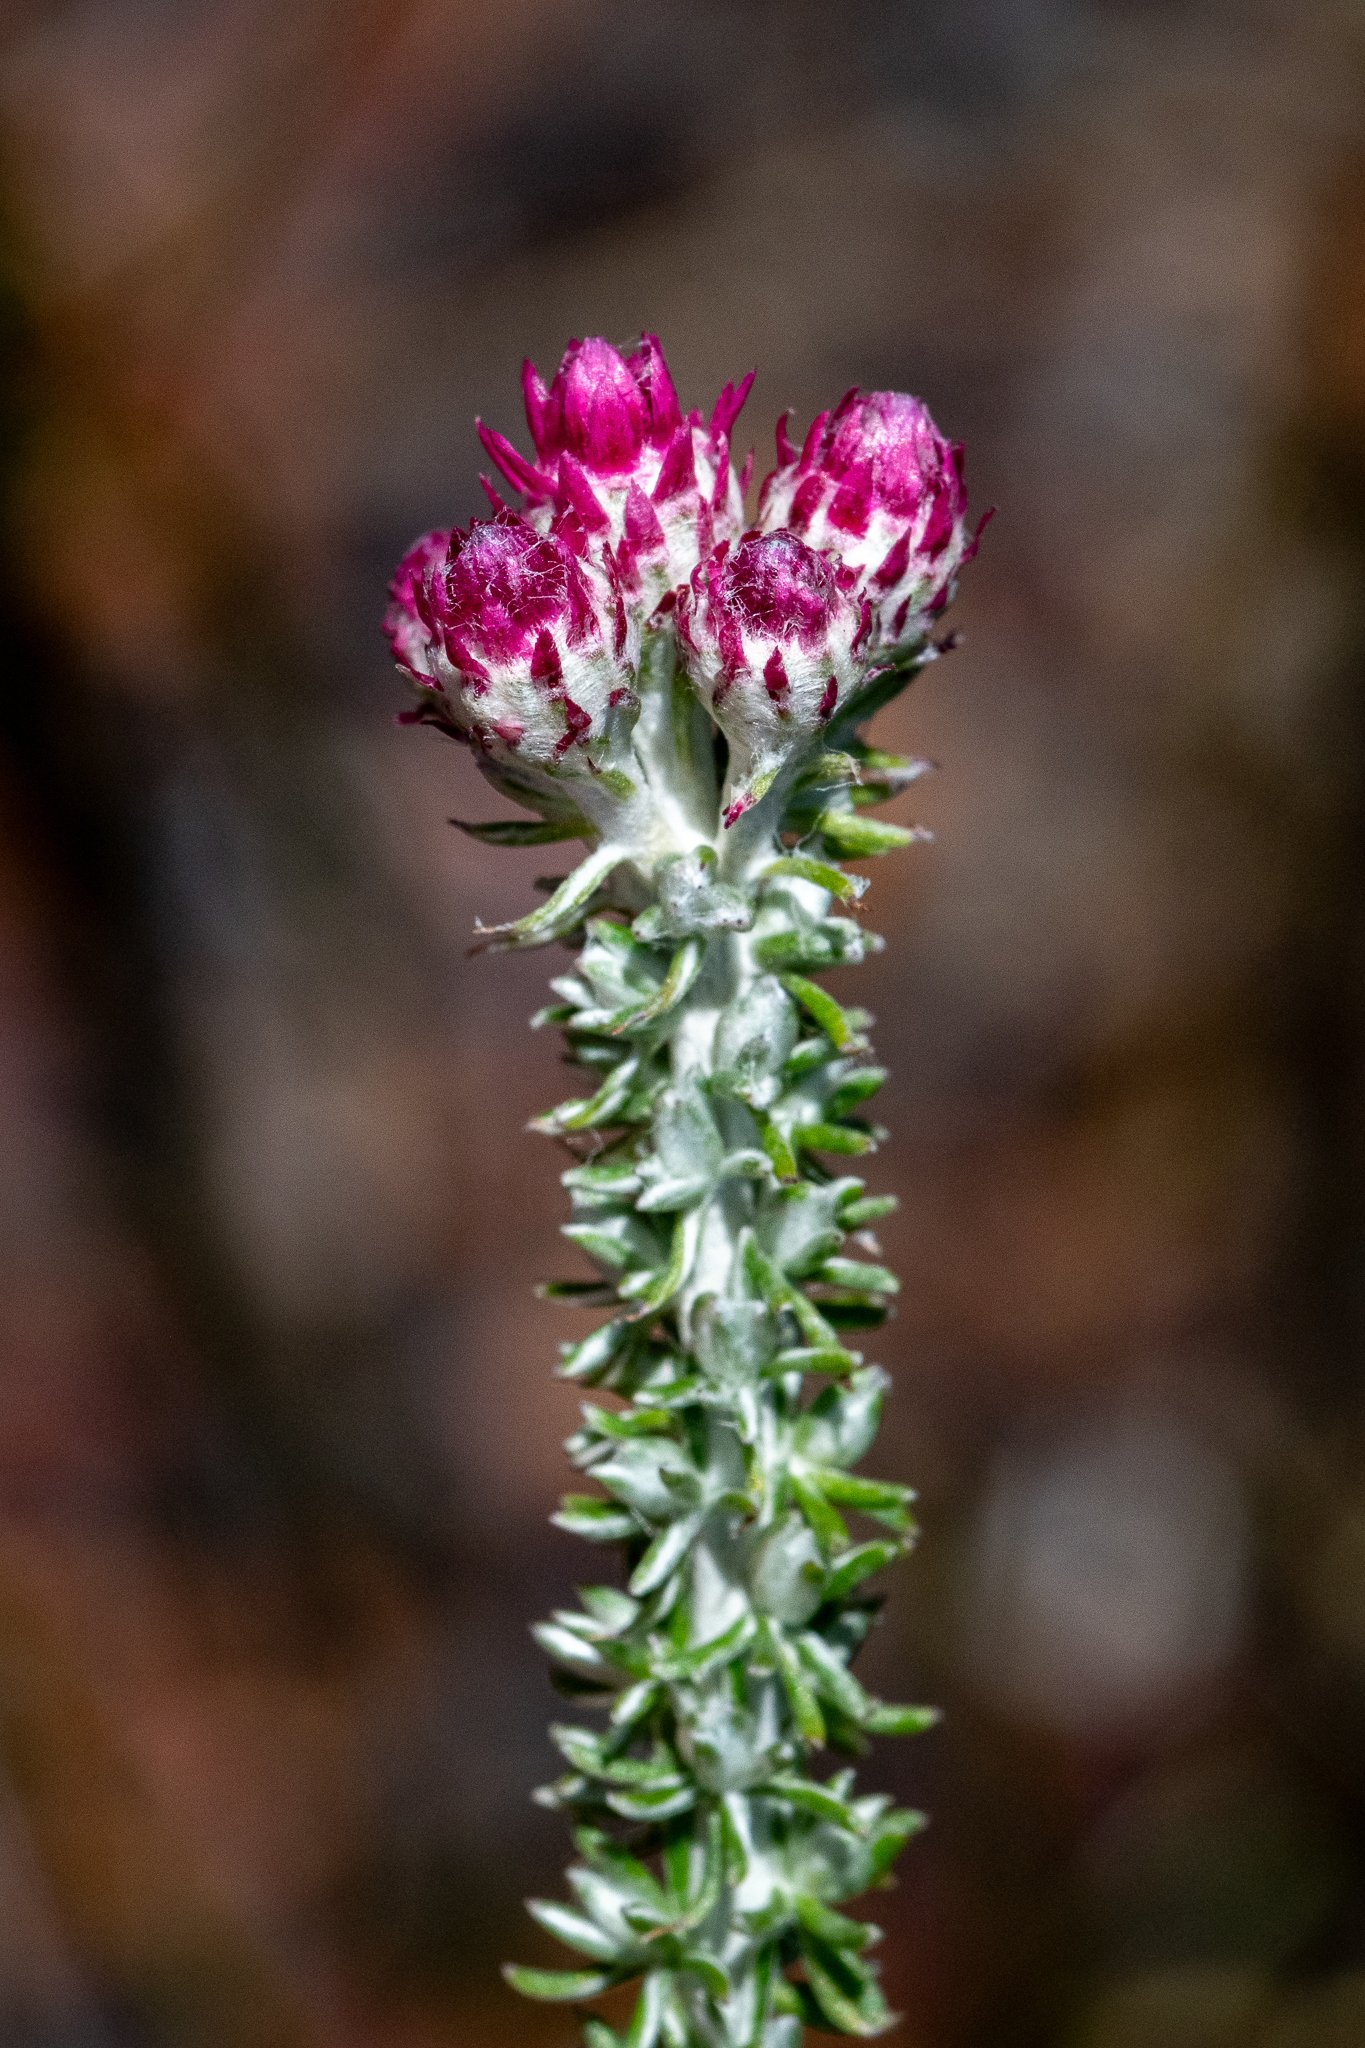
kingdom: Plantae
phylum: Tracheophyta
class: Magnoliopsida
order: Asterales
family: Asteraceae
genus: Lachnospermum
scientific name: Lachnospermum umbellatum
